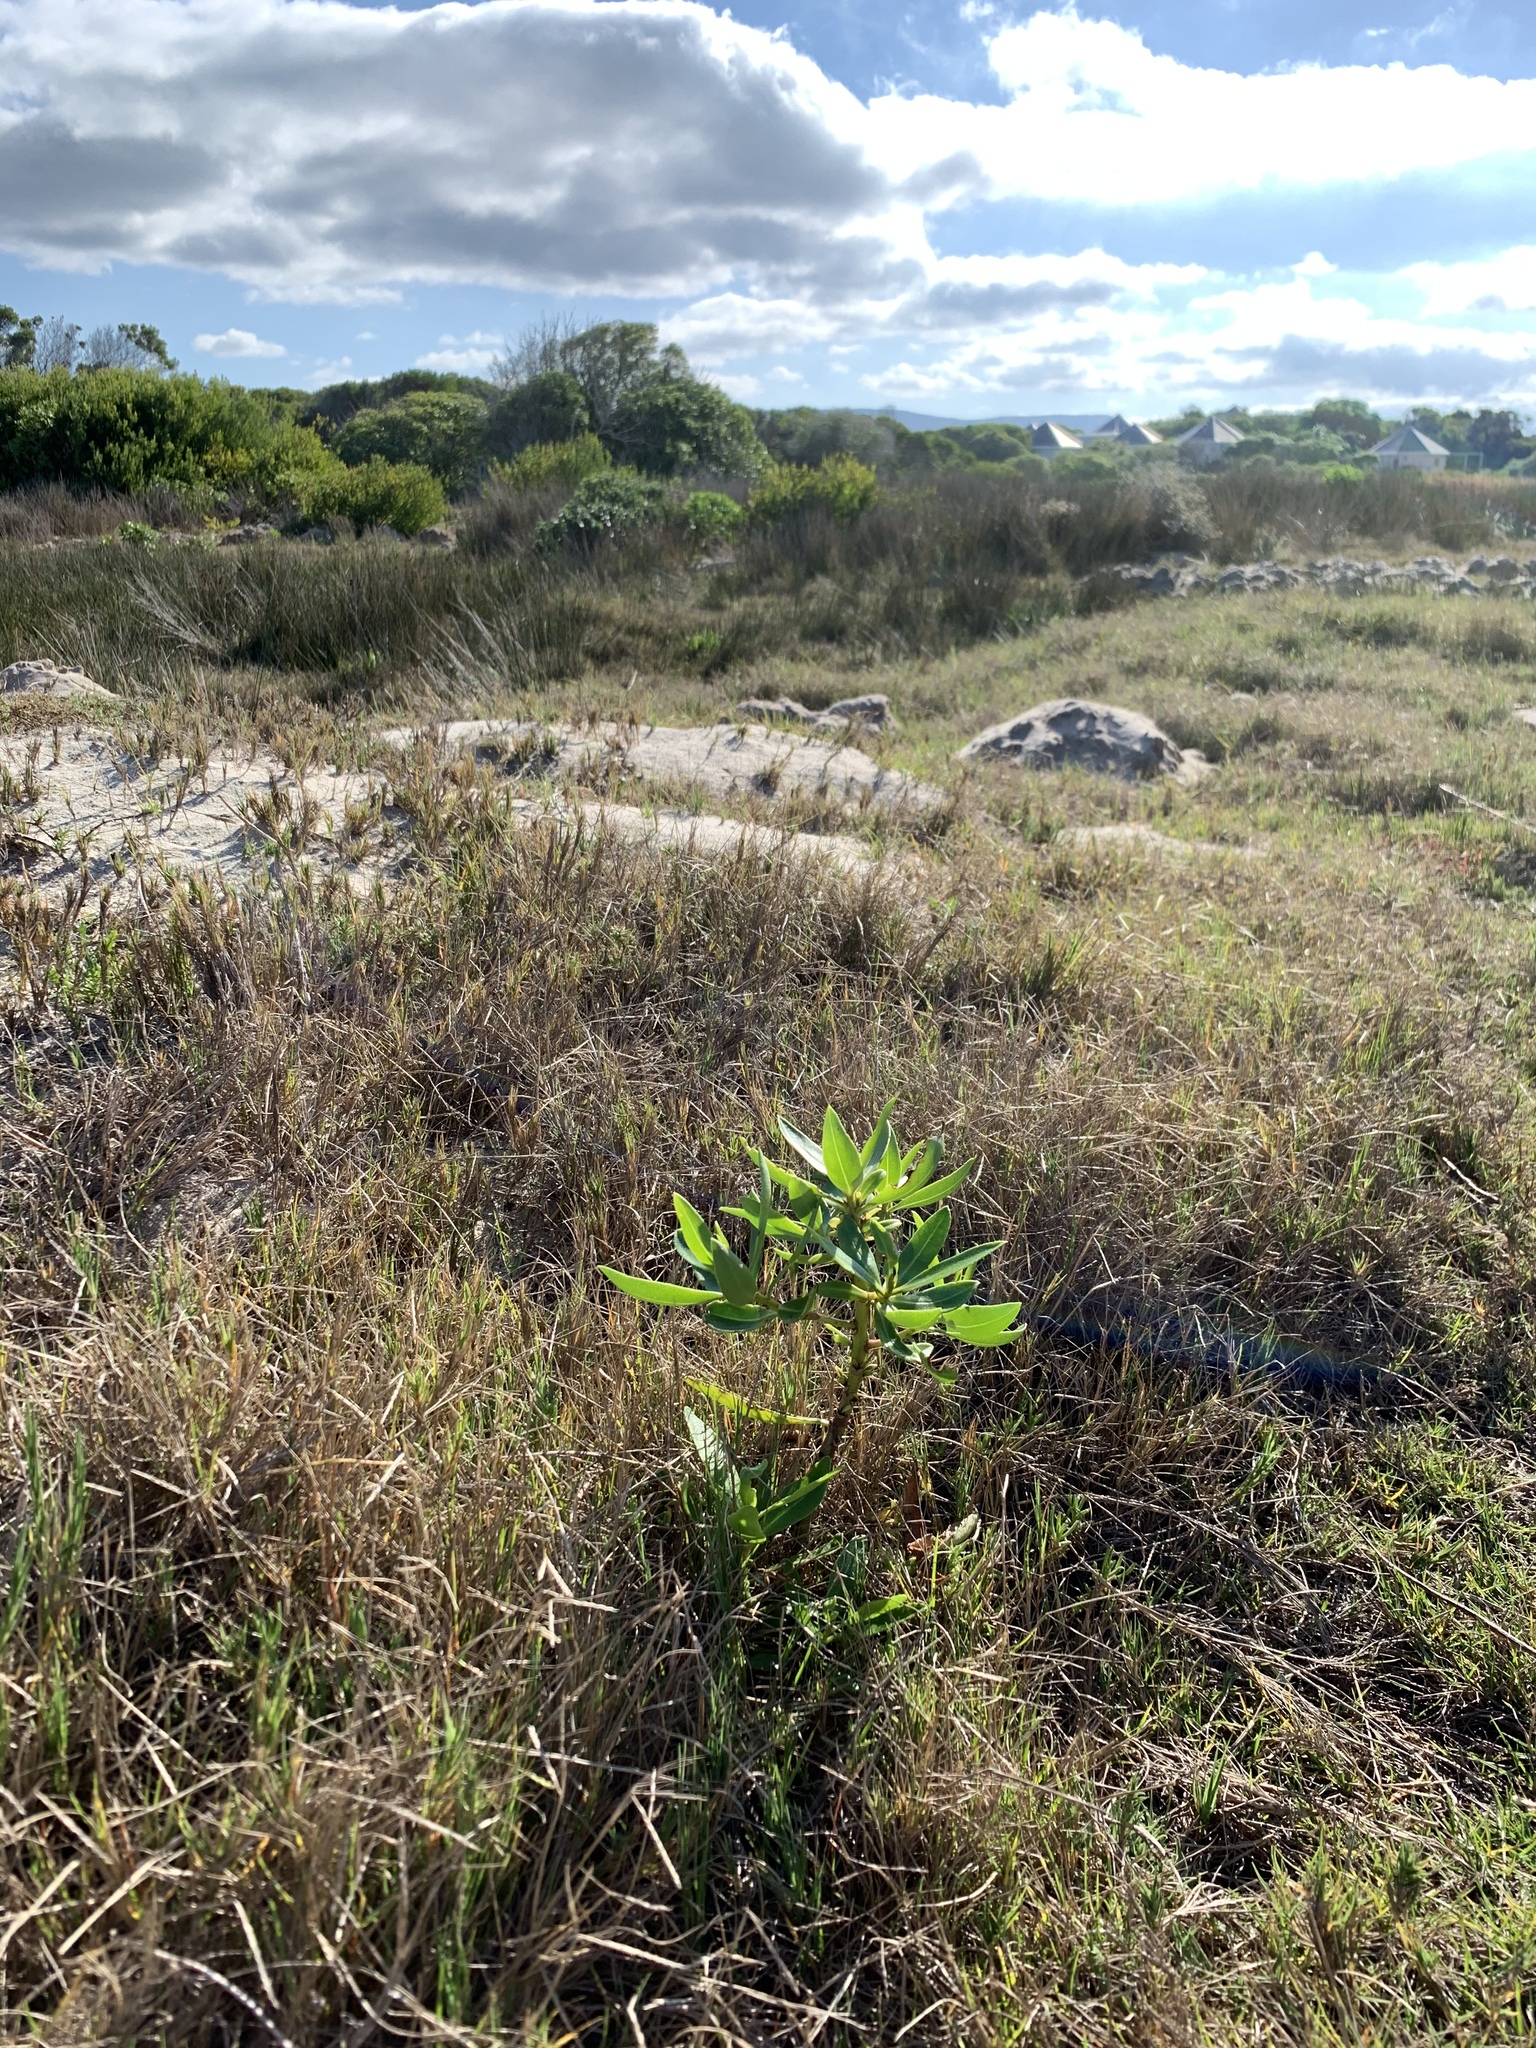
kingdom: Plantae
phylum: Tracheophyta
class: Magnoliopsida
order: Lamiales
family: Scrophulariaceae
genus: Myoporum
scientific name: Myoporum laetum
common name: Ngaio tree
